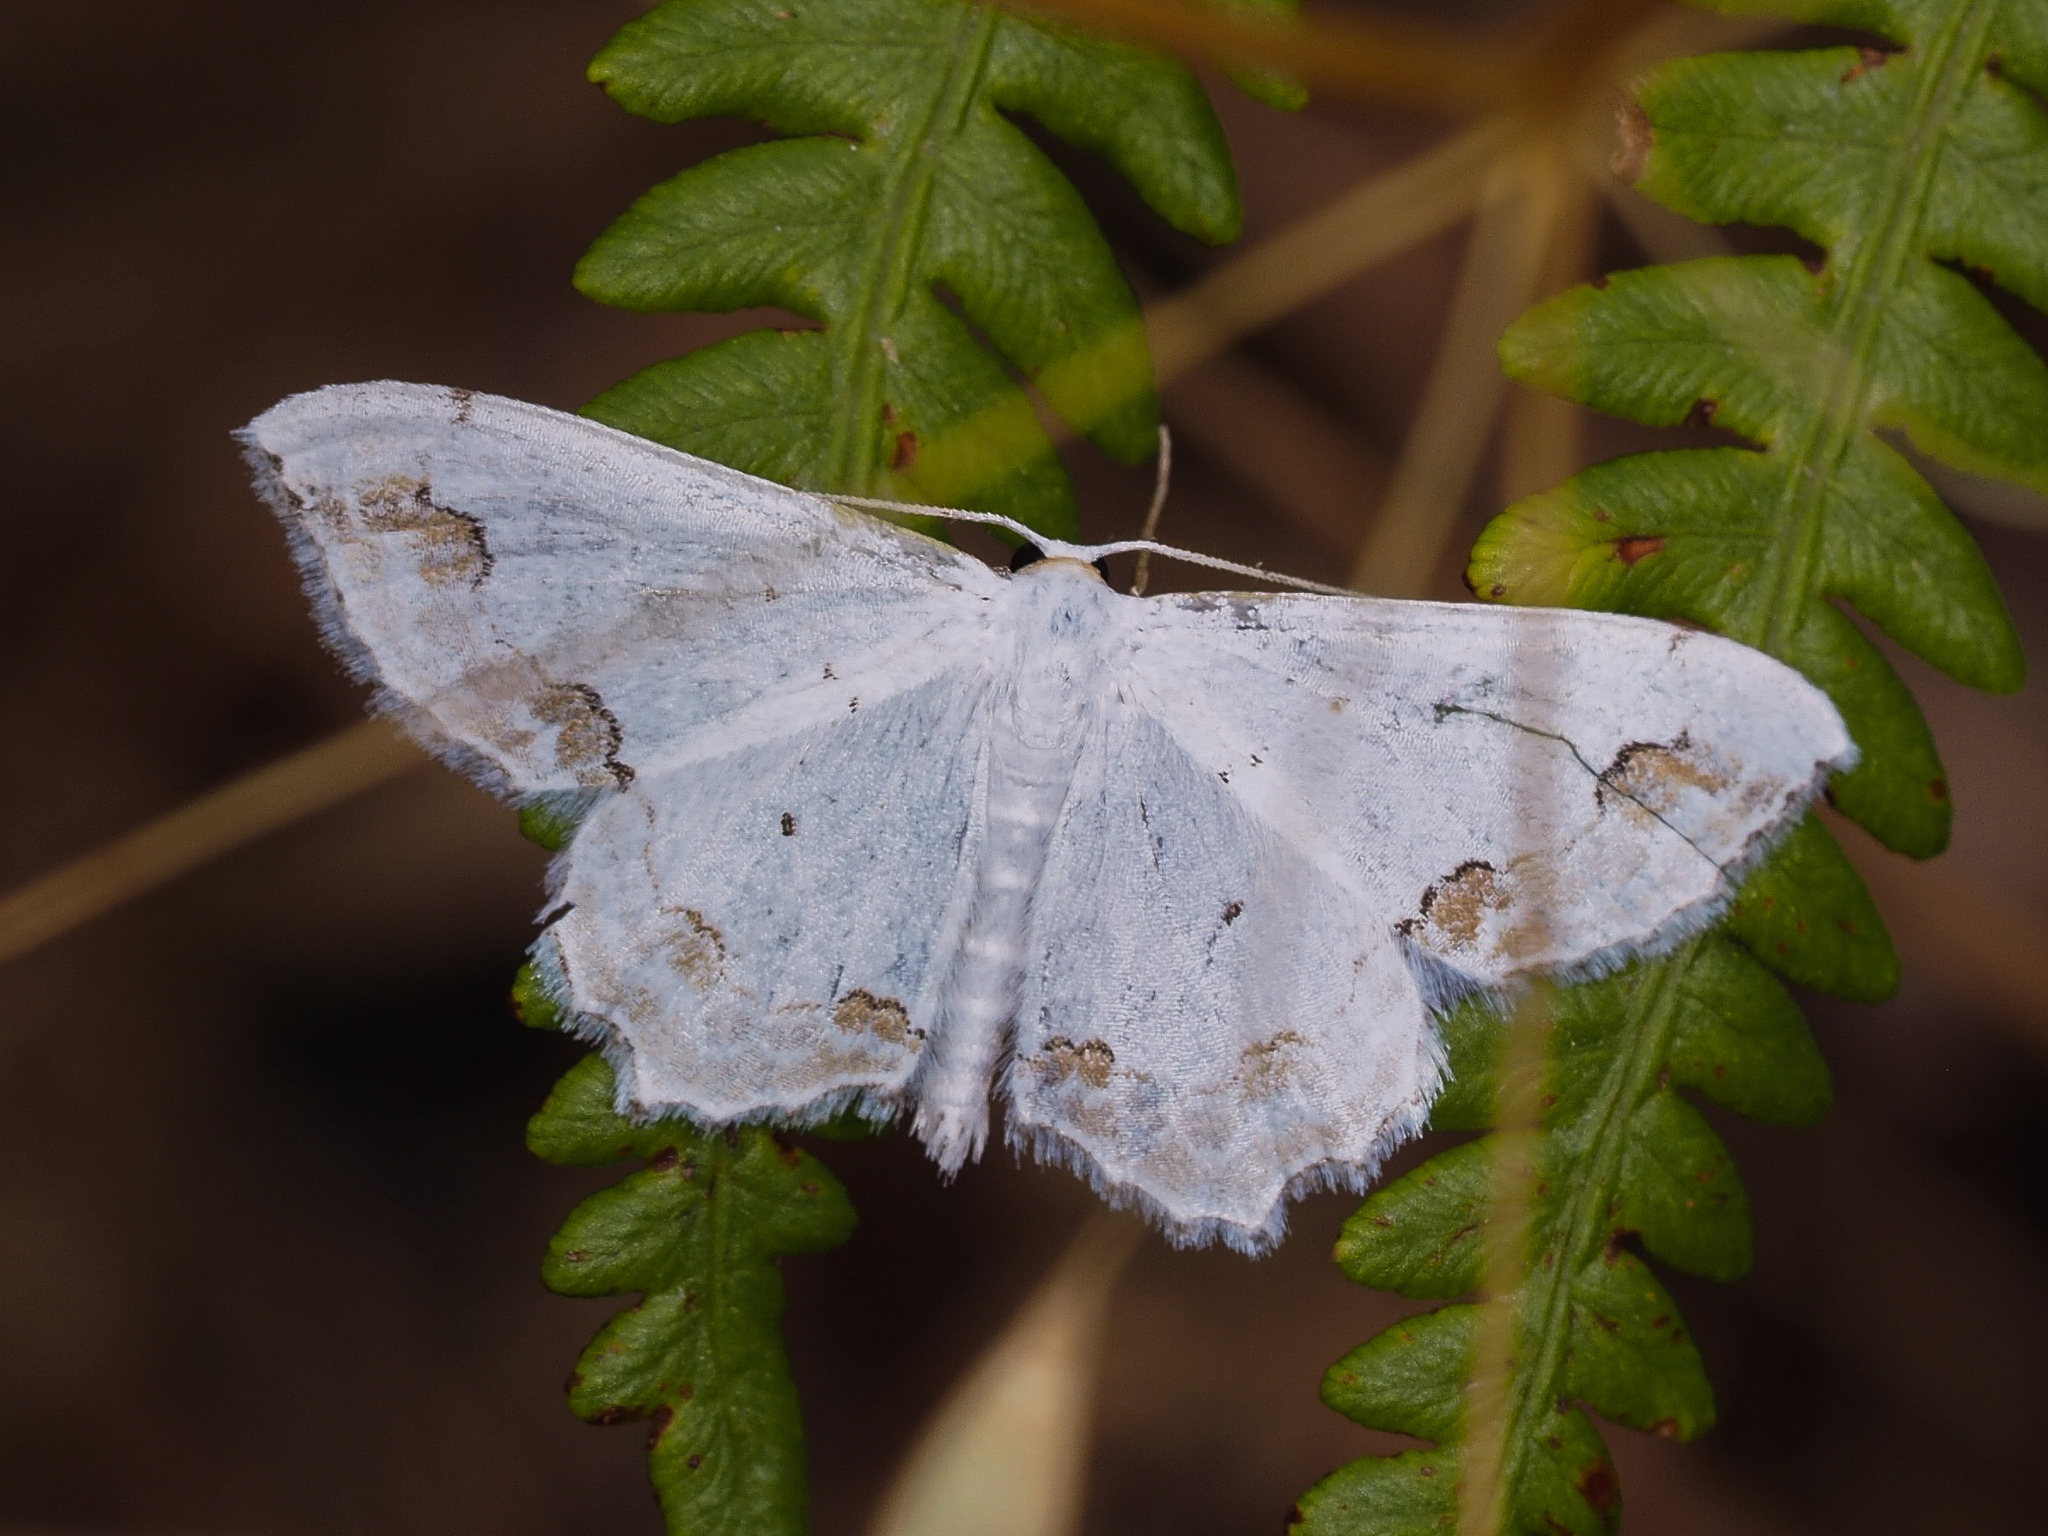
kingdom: Animalia
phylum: Arthropoda
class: Insecta
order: Lepidoptera
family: Geometridae
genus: Scopula
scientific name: Scopula ornata
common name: Lace border
